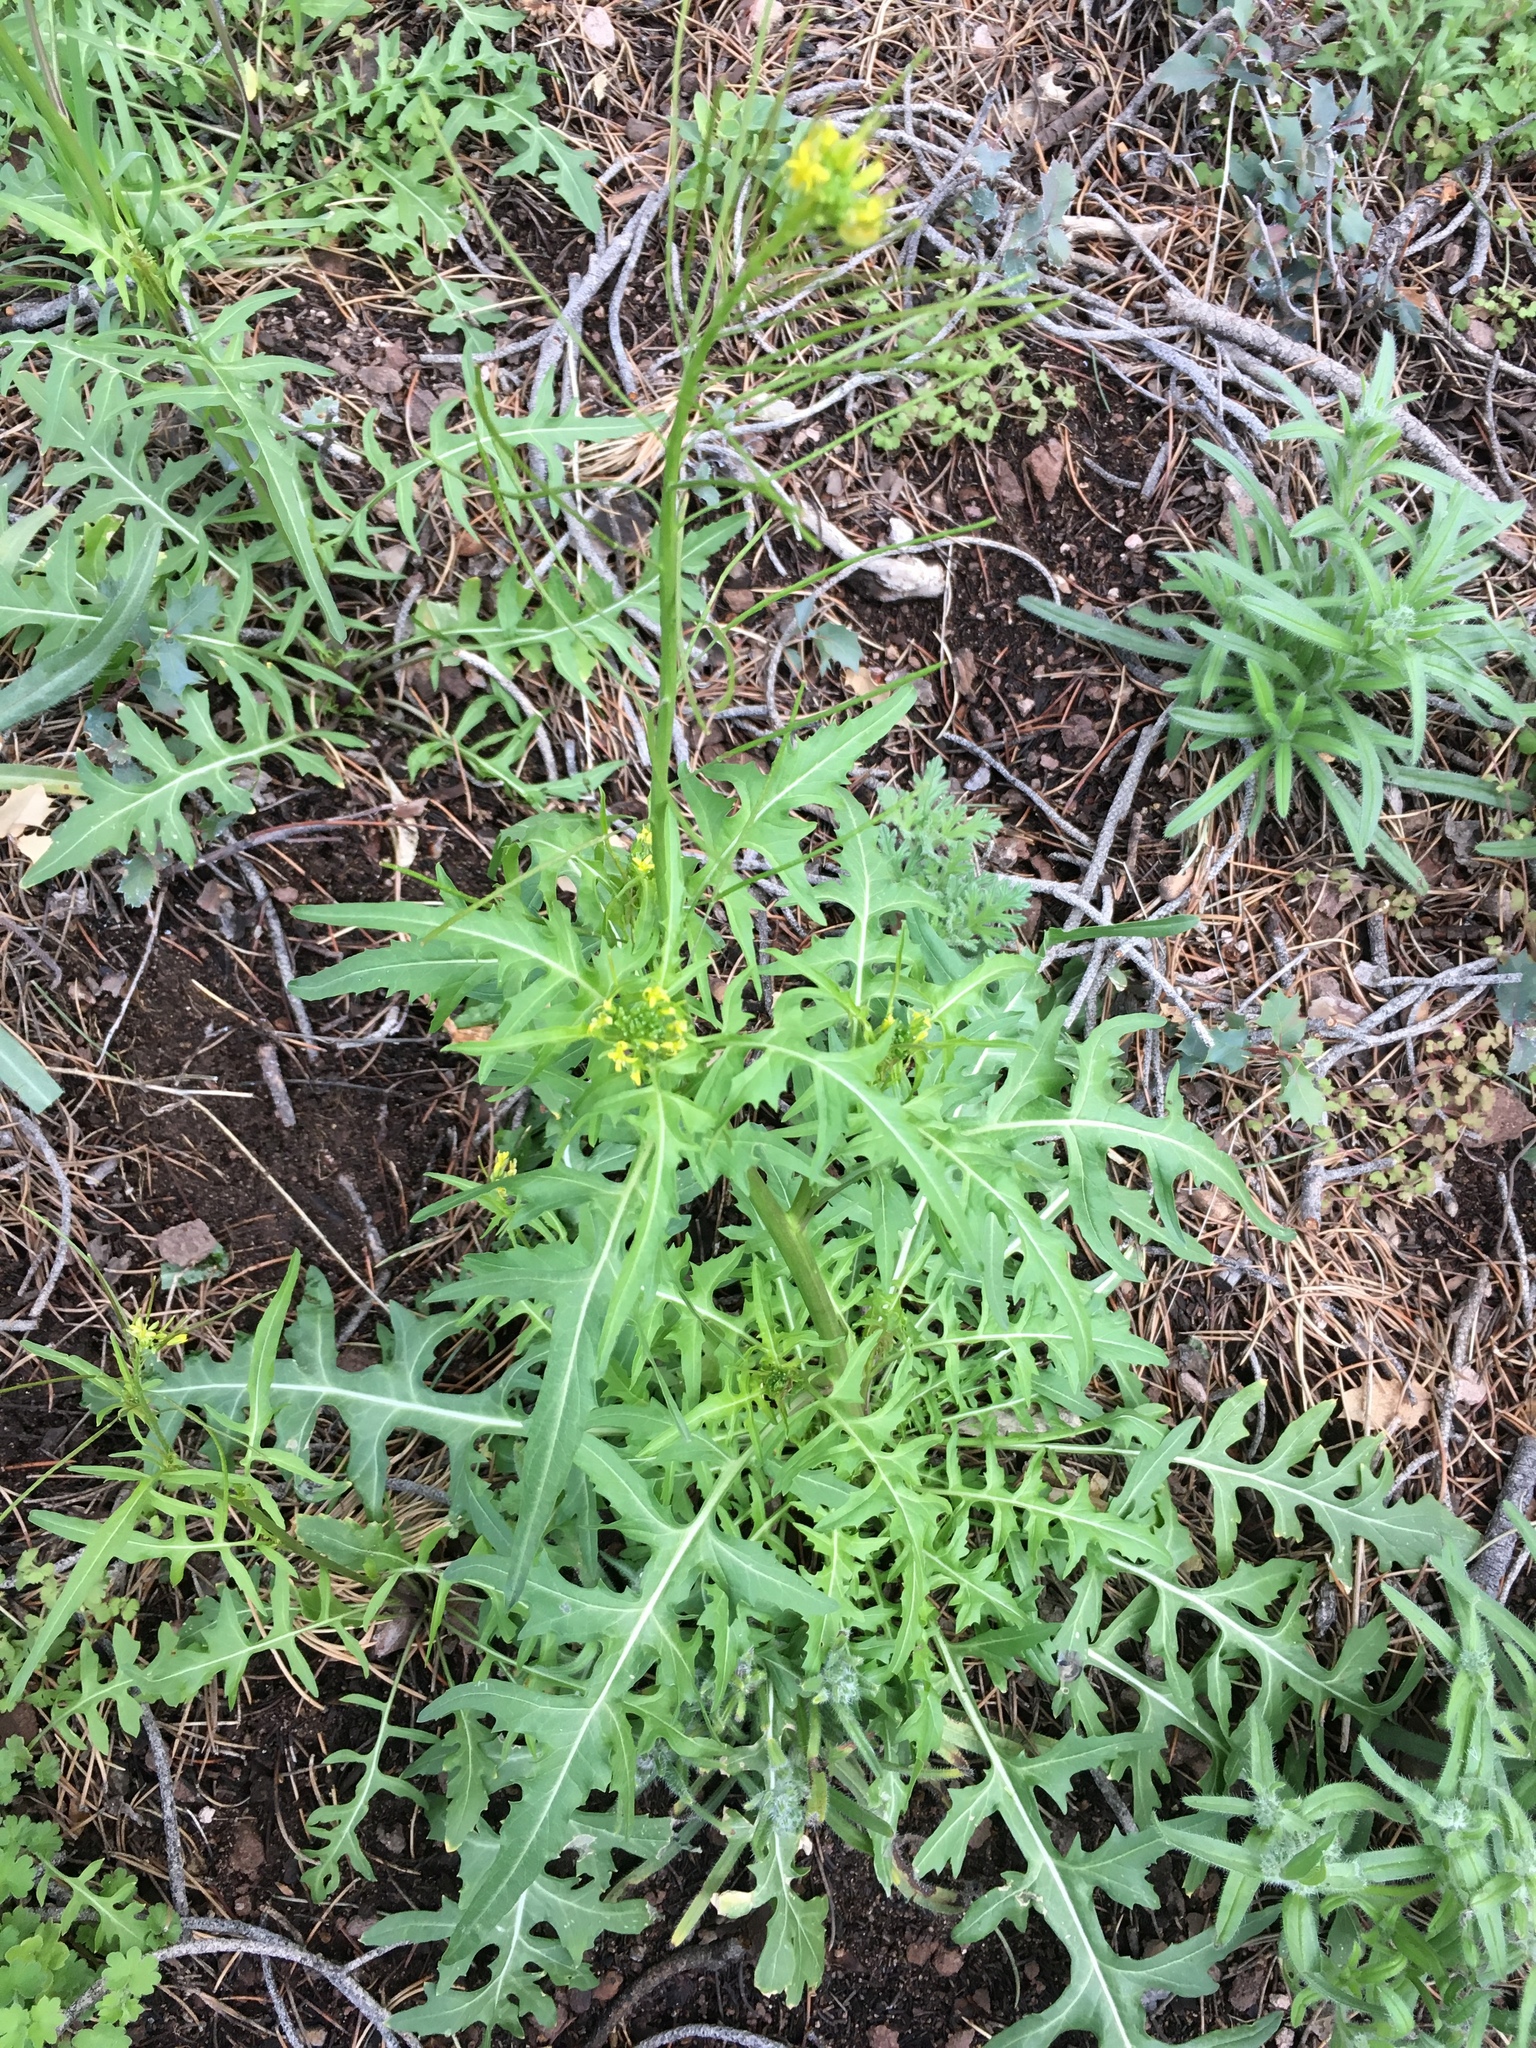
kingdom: Plantae
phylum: Tracheophyta
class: Magnoliopsida
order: Brassicales
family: Brassicaceae
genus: Sisymbrium
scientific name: Sisymbrium irio
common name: London rocket
